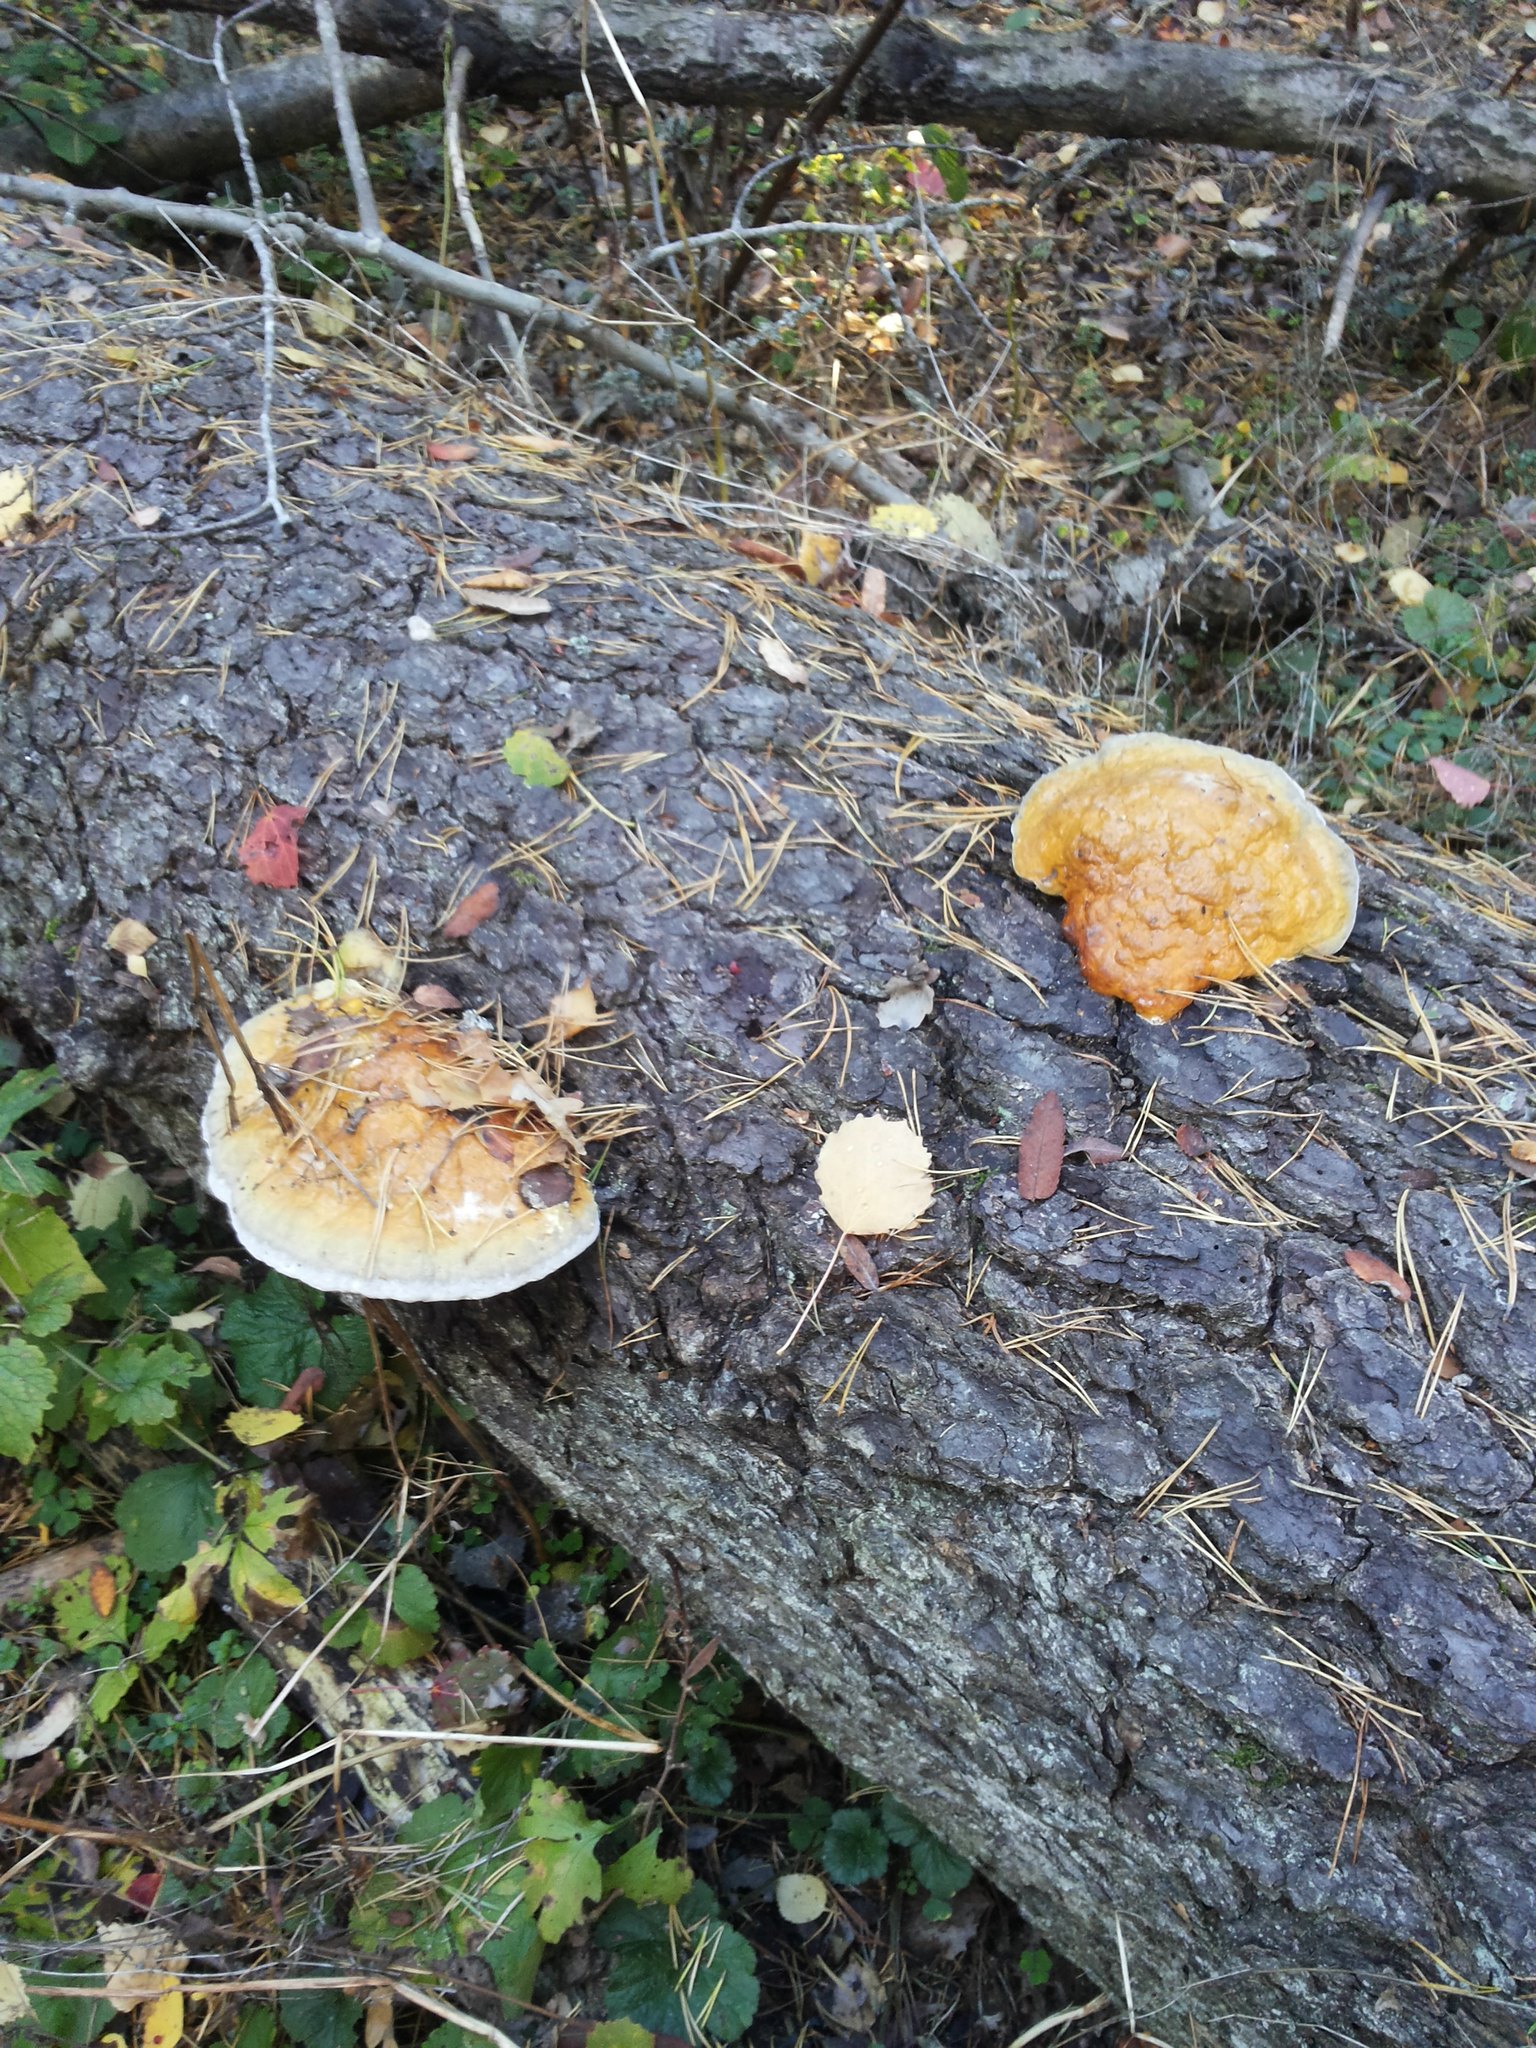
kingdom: Fungi
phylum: Basidiomycota
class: Agaricomycetes
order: Polyporales
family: Fomitopsidaceae
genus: Fomitopsis
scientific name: Fomitopsis pinicola
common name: Red-belted bracket
